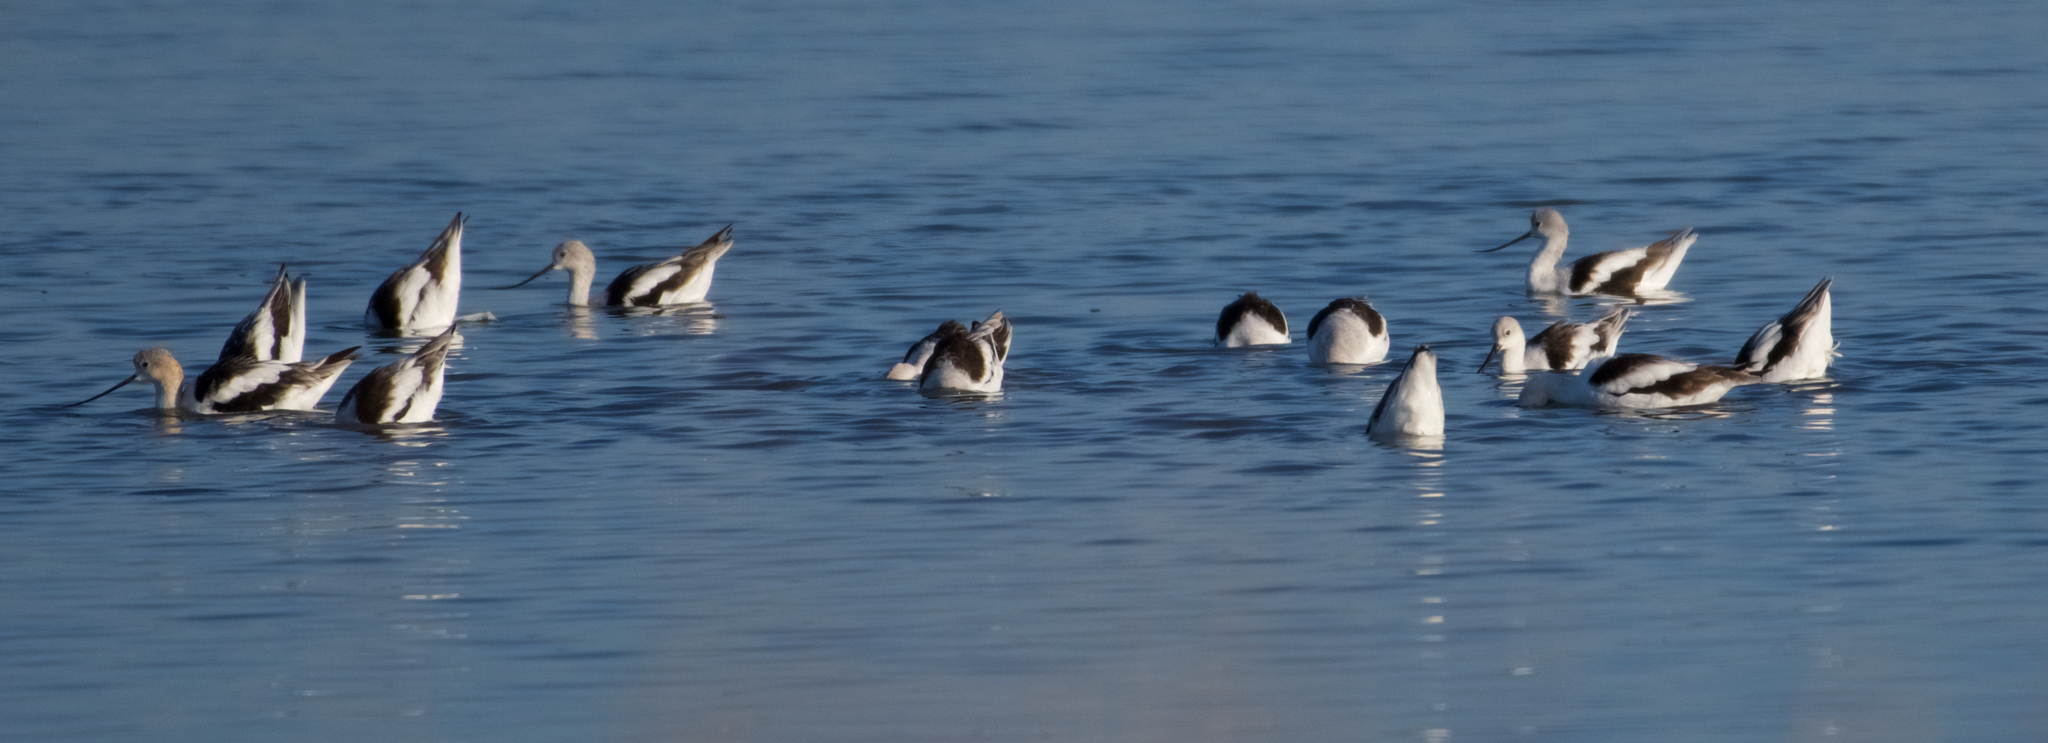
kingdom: Animalia
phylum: Chordata
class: Aves
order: Charadriiformes
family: Recurvirostridae
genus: Recurvirostra
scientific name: Recurvirostra americana
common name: American avocet
